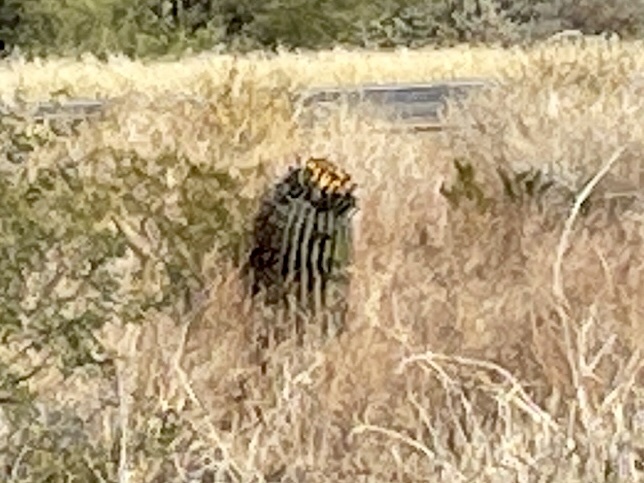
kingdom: Plantae
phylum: Tracheophyta
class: Magnoliopsida
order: Caryophyllales
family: Cactaceae
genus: Ferocactus
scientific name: Ferocactus wislizeni
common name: Candy barrel cactus
